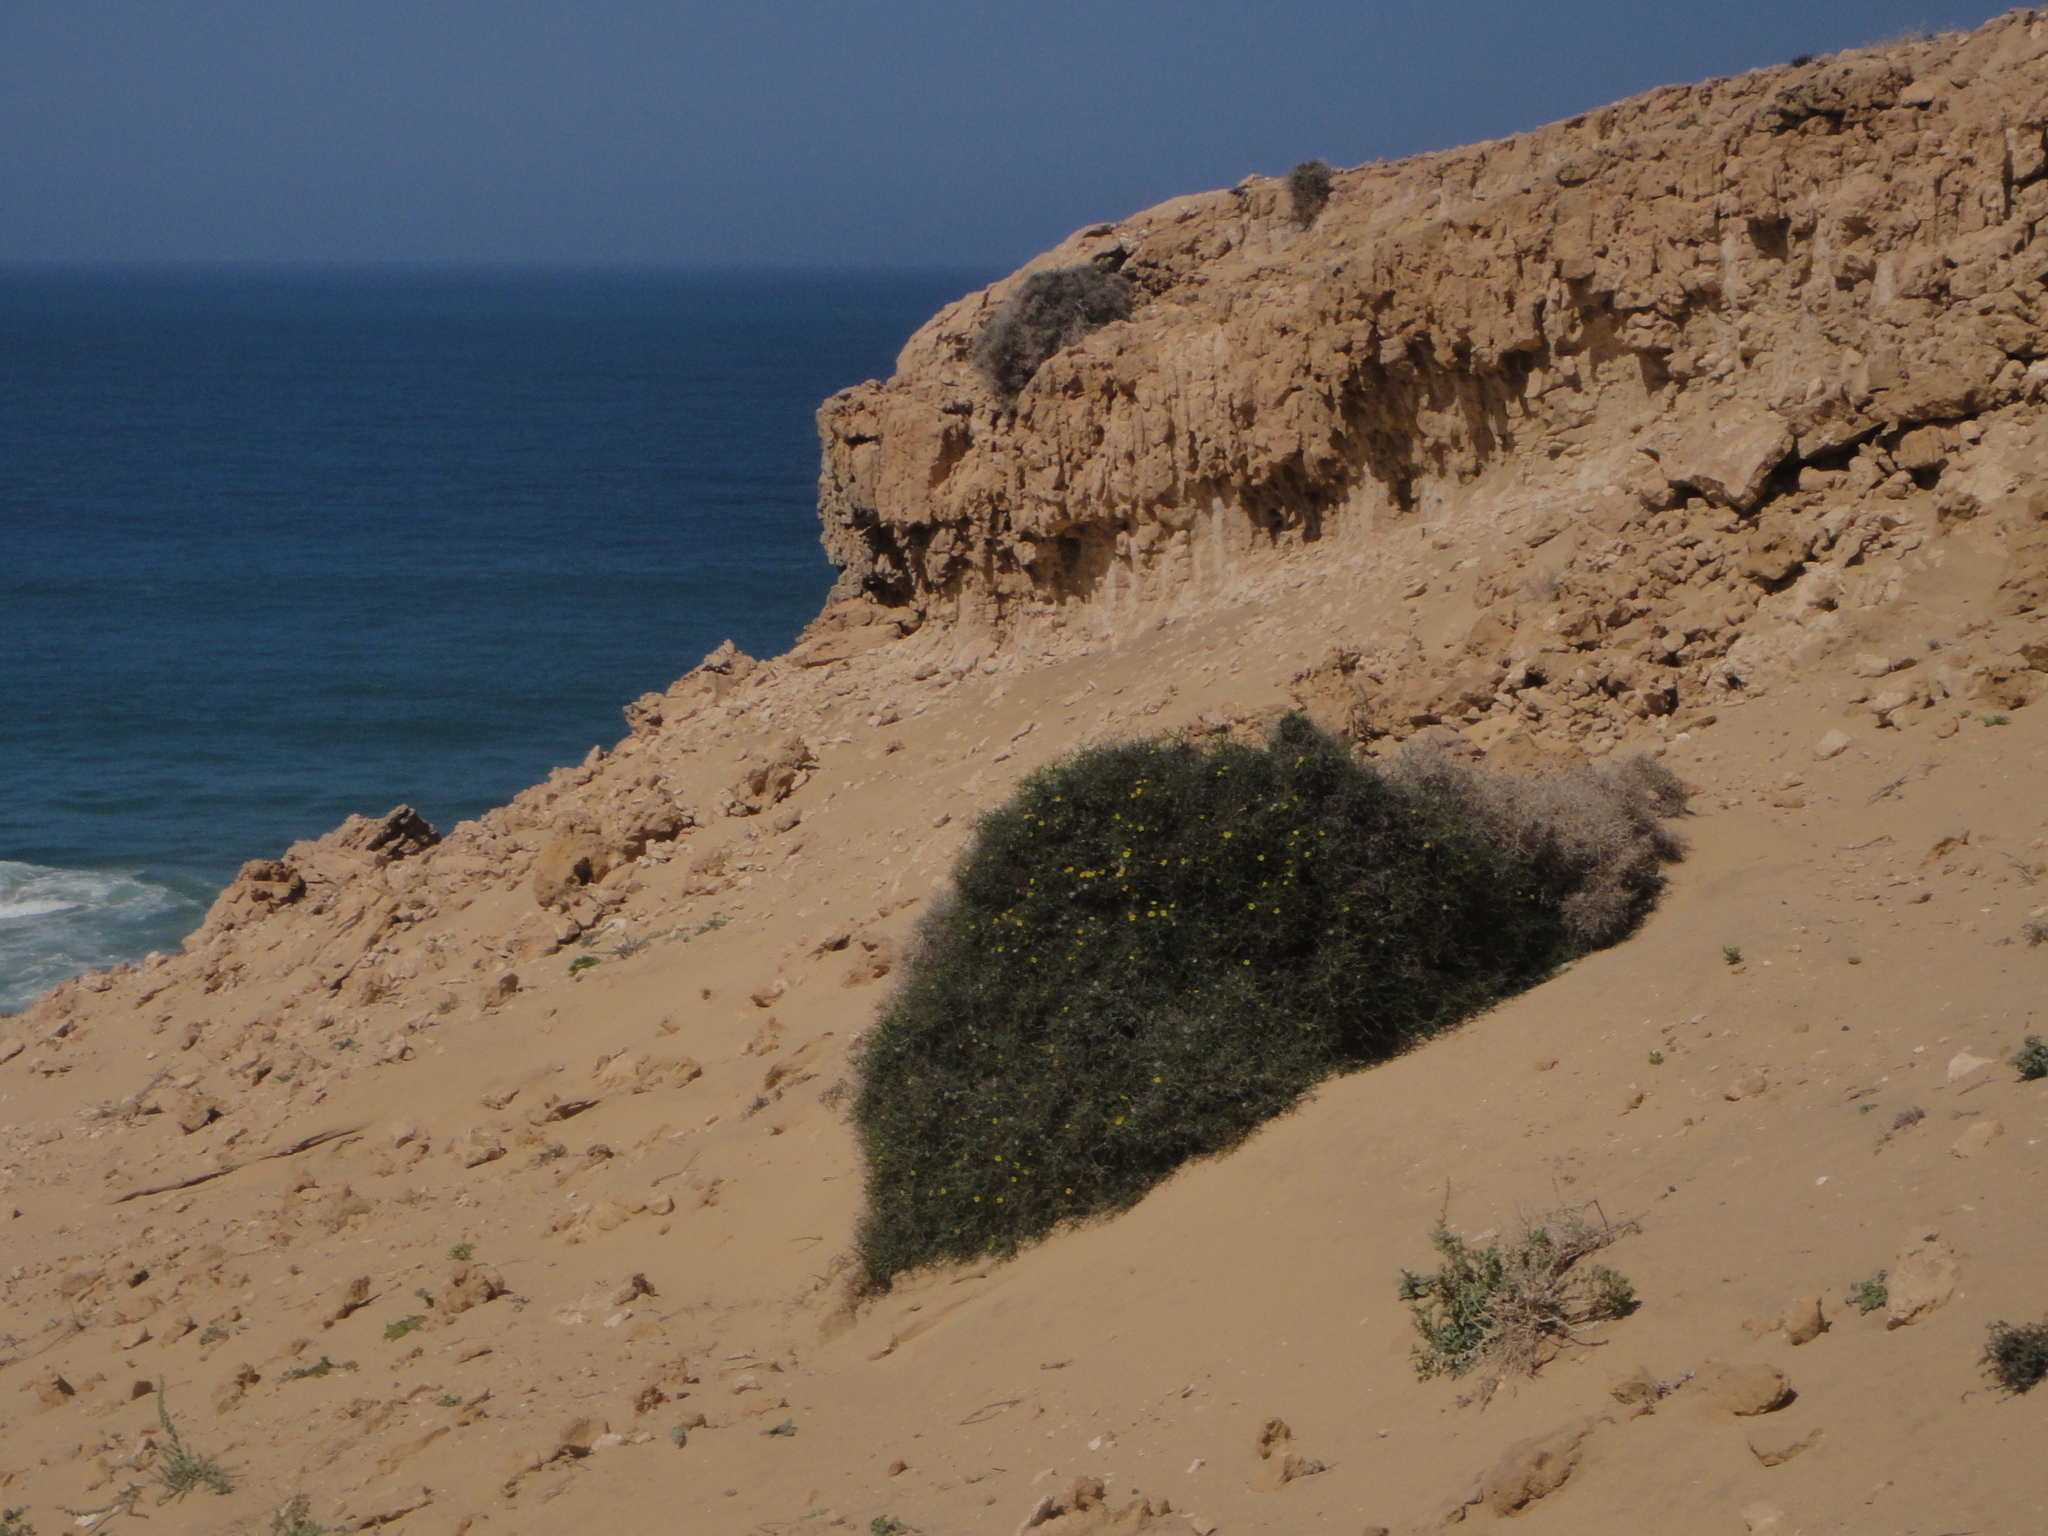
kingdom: Plantae
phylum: Tracheophyta
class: Magnoliopsida
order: Asterales
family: Asteraceae
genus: Launaea
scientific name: Launaea arborescens
